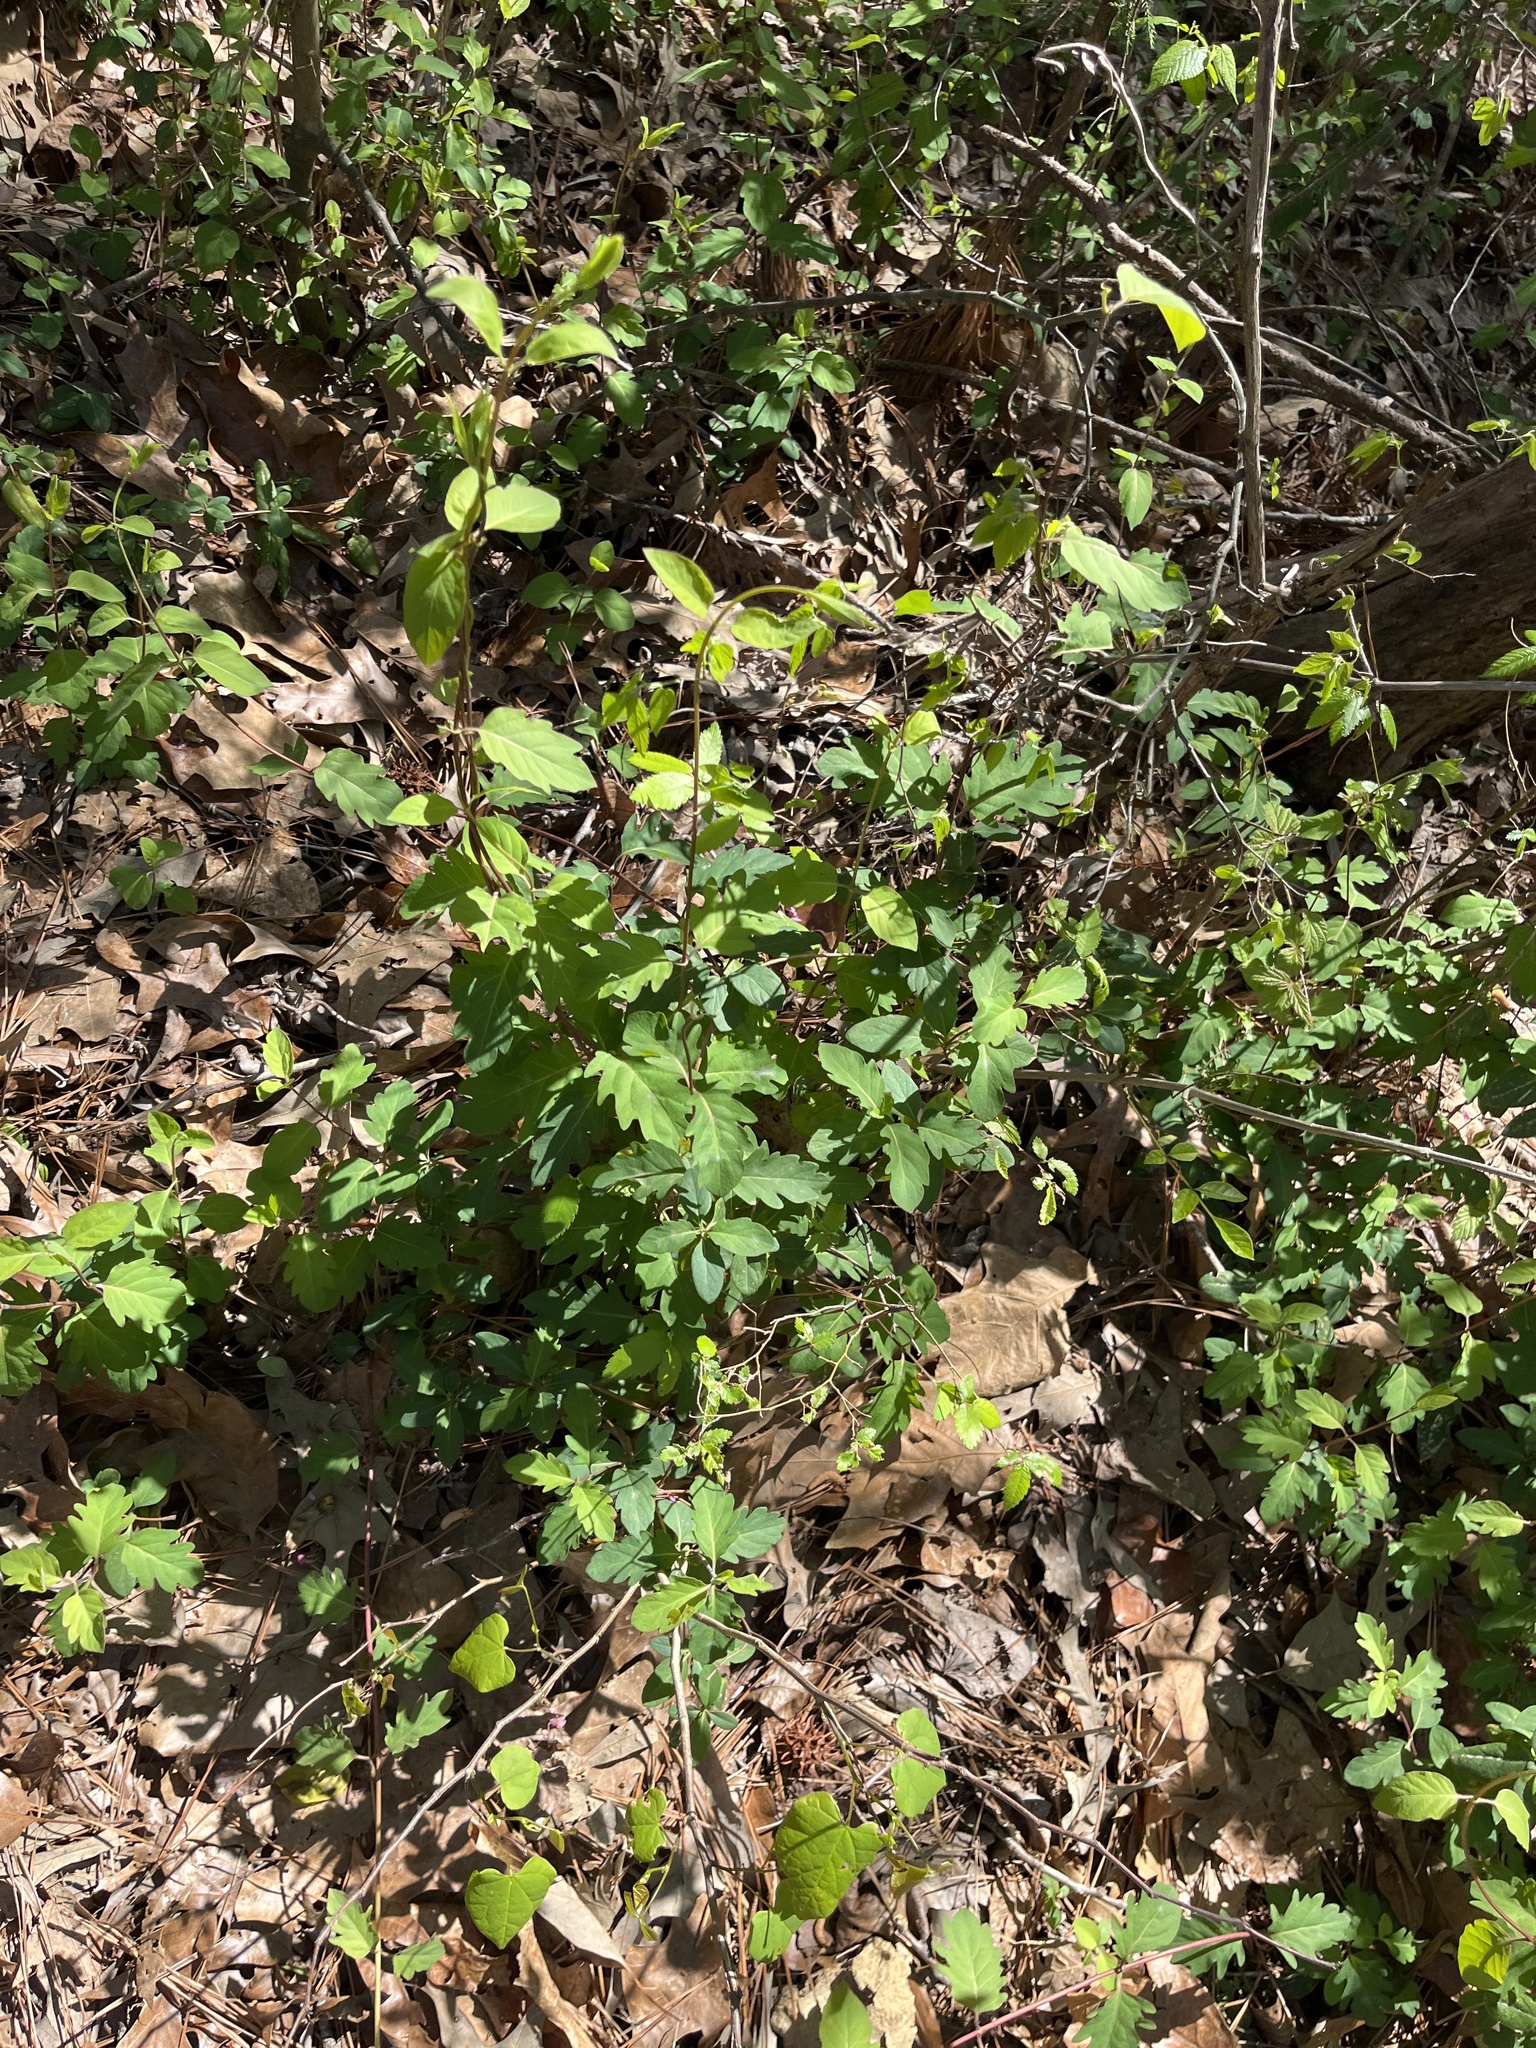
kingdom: Plantae
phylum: Tracheophyta
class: Magnoliopsida
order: Dipsacales
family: Caprifoliaceae
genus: Lonicera
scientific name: Lonicera japonica
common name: Japanese honeysuckle
